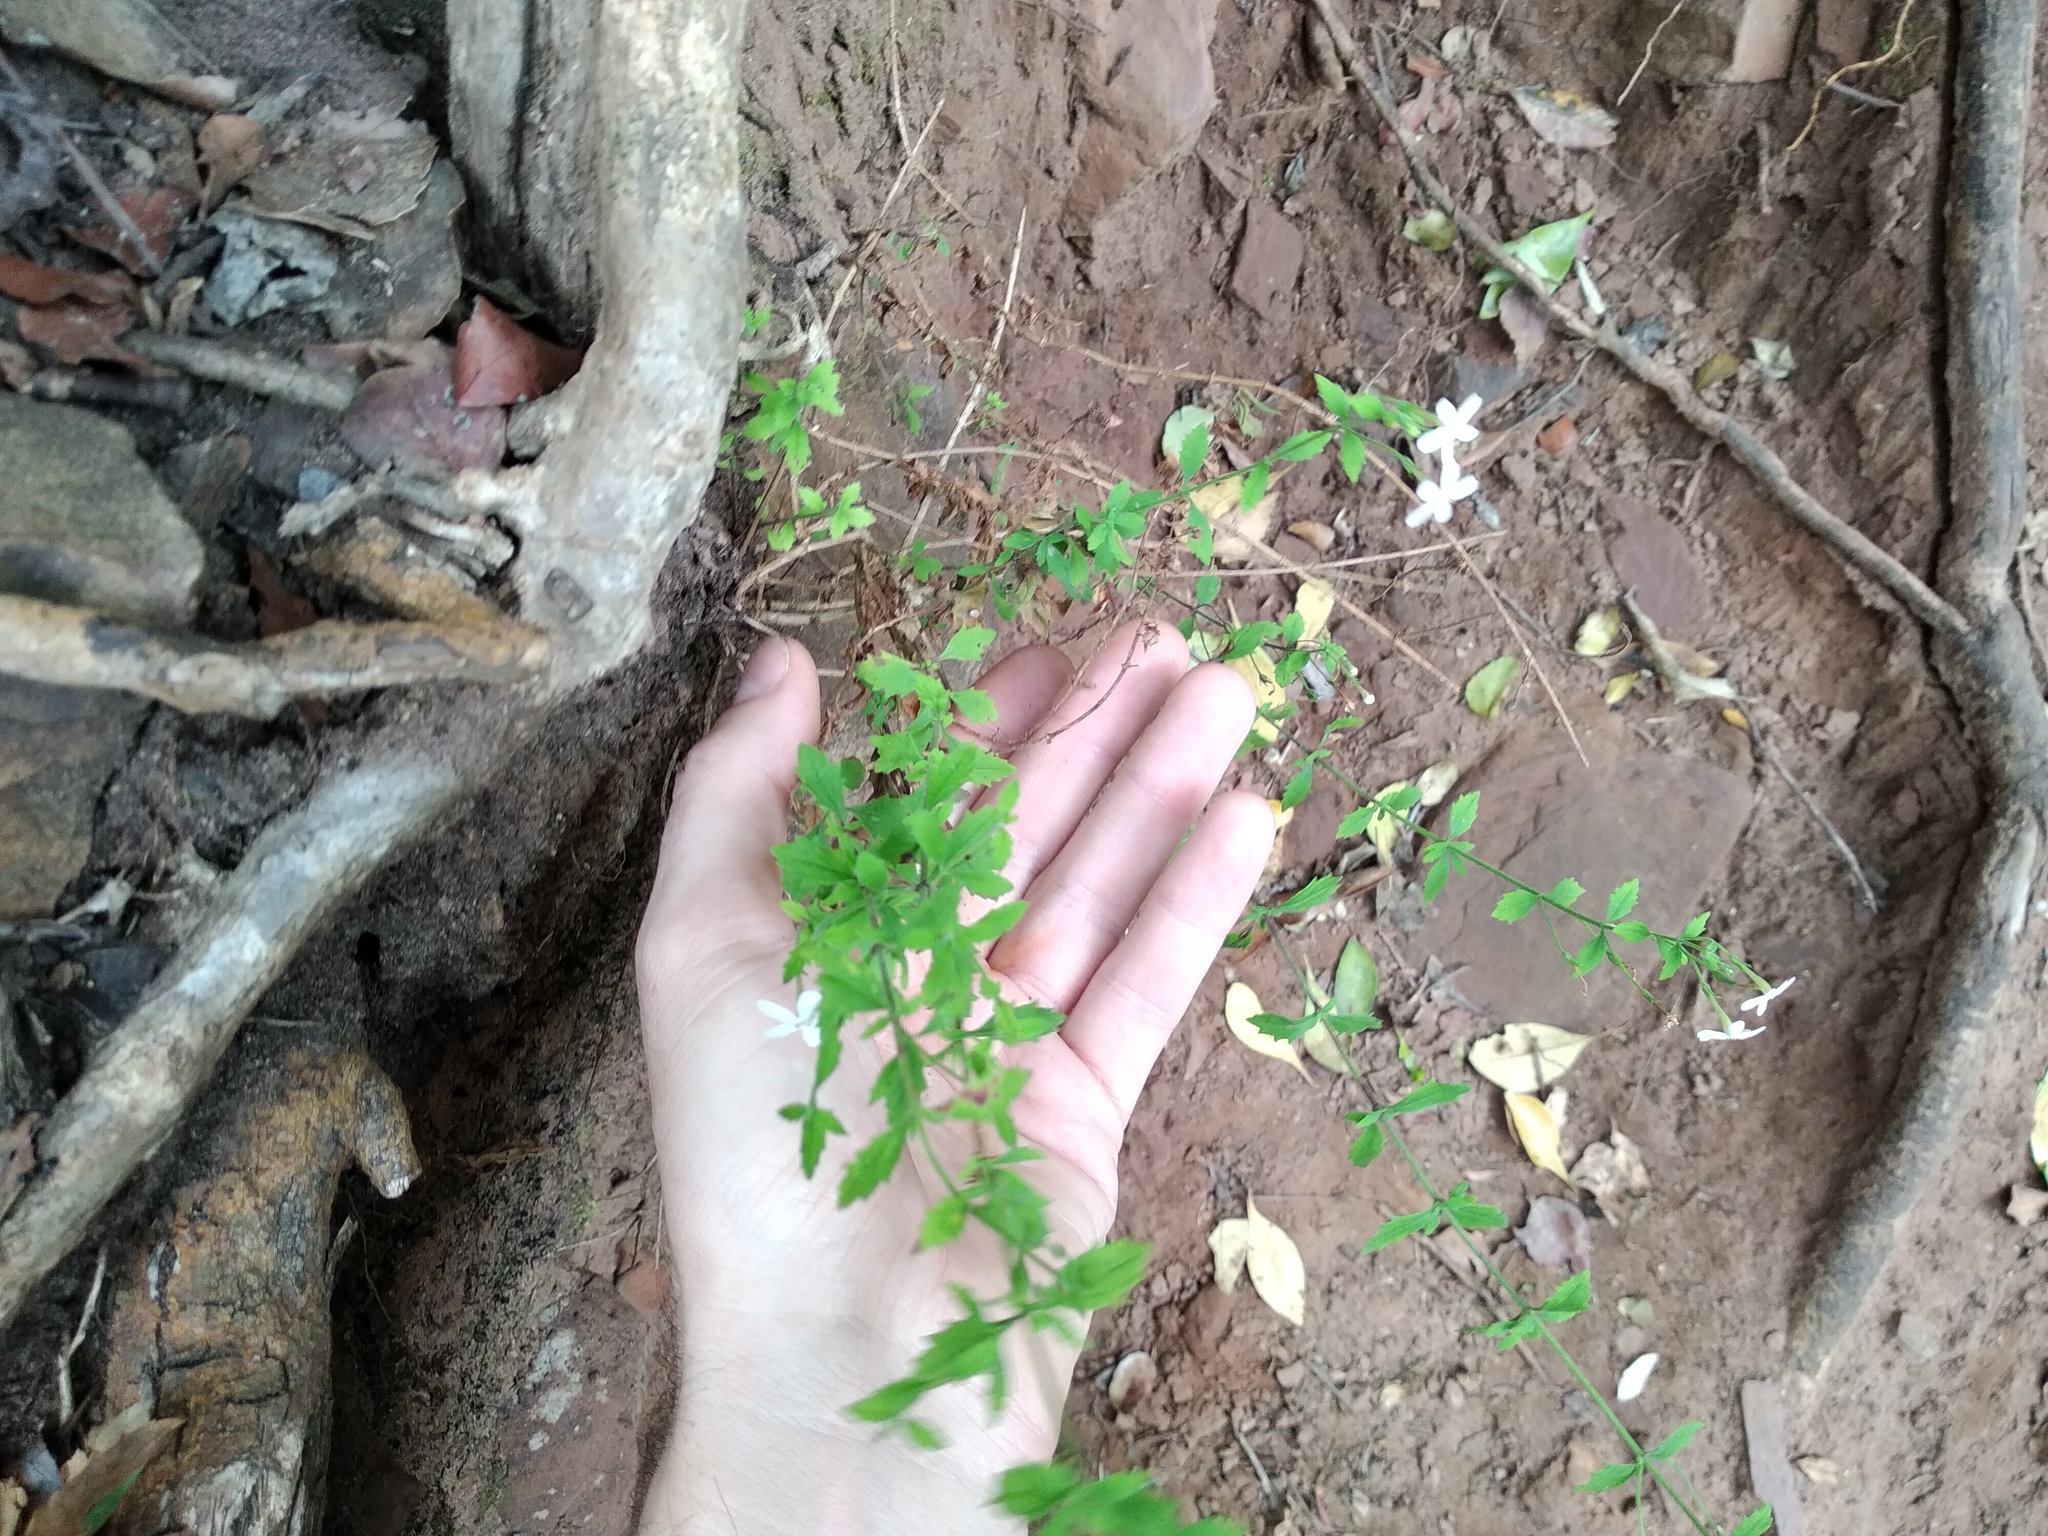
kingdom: Plantae
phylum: Tracheophyta
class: Magnoliopsida
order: Lamiales
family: Scrophulariaceae
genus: Chaenostoma
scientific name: Chaenostoma hispidum
